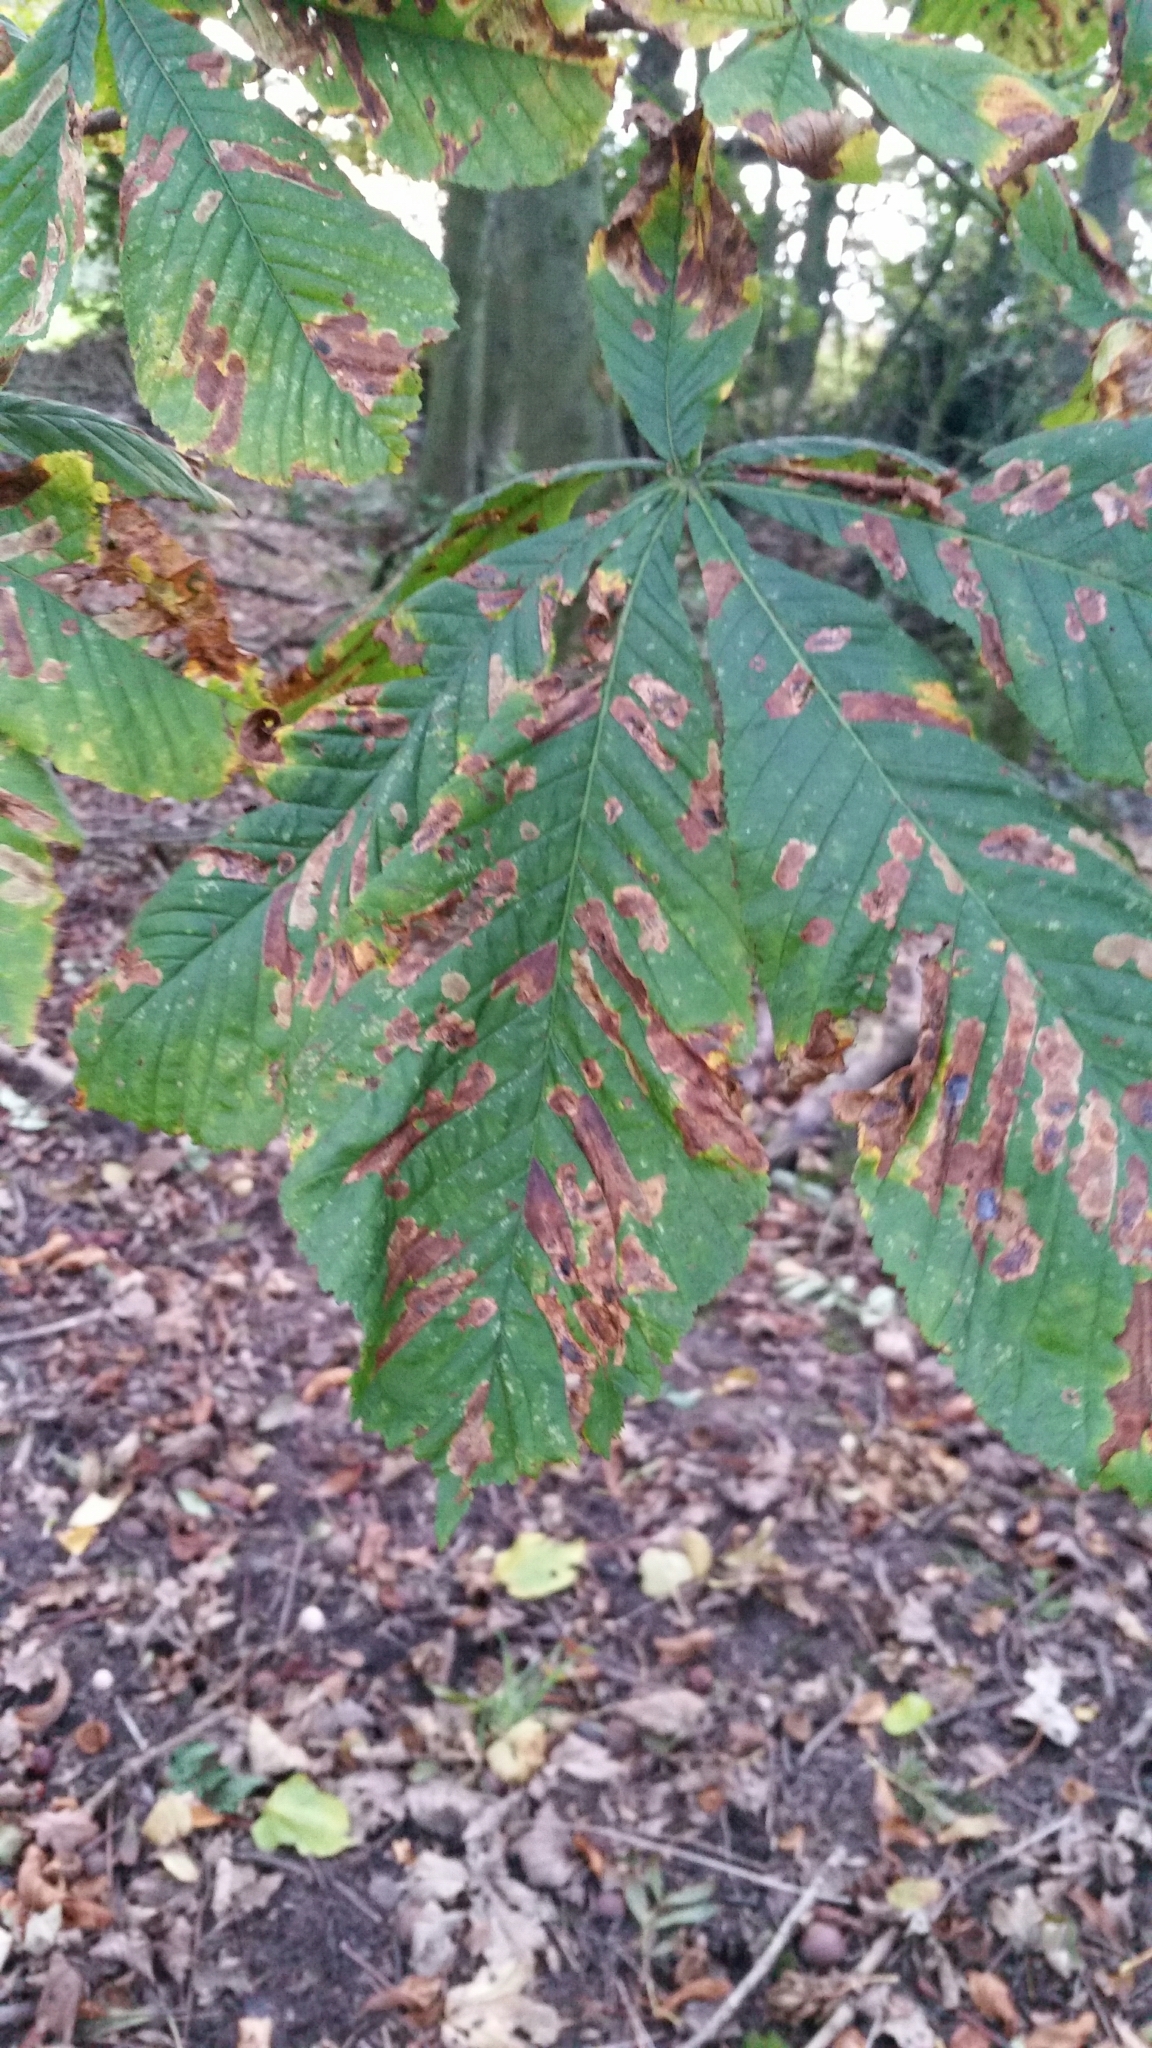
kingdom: Animalia
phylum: Arthropoda
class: Insecta
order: Lepidoptera
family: Gracillariidae
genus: Cameraria
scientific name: Cameraria ohridella
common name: Horse-chestnut leaf-miner
